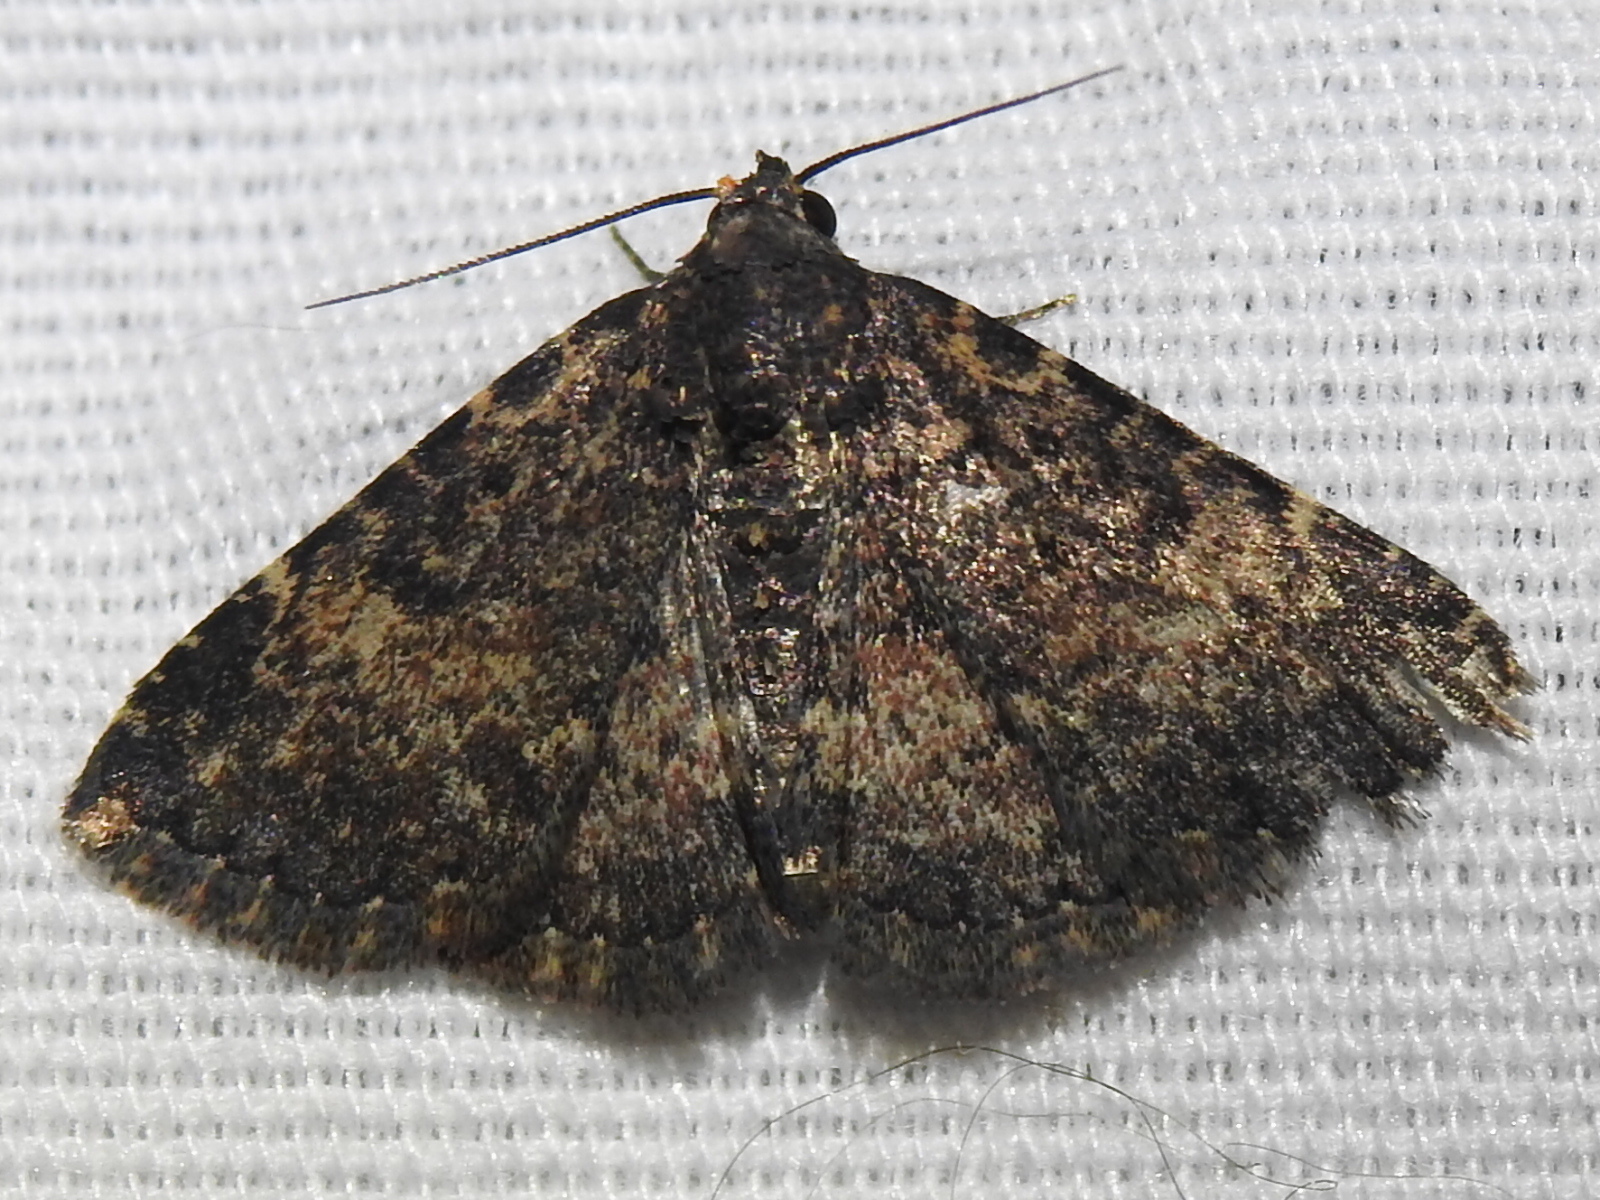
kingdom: Animalia
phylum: Arthropoda
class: Insecta
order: Lepidoptera
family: Erebidae
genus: Metalectra
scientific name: Metalectra diabolica
